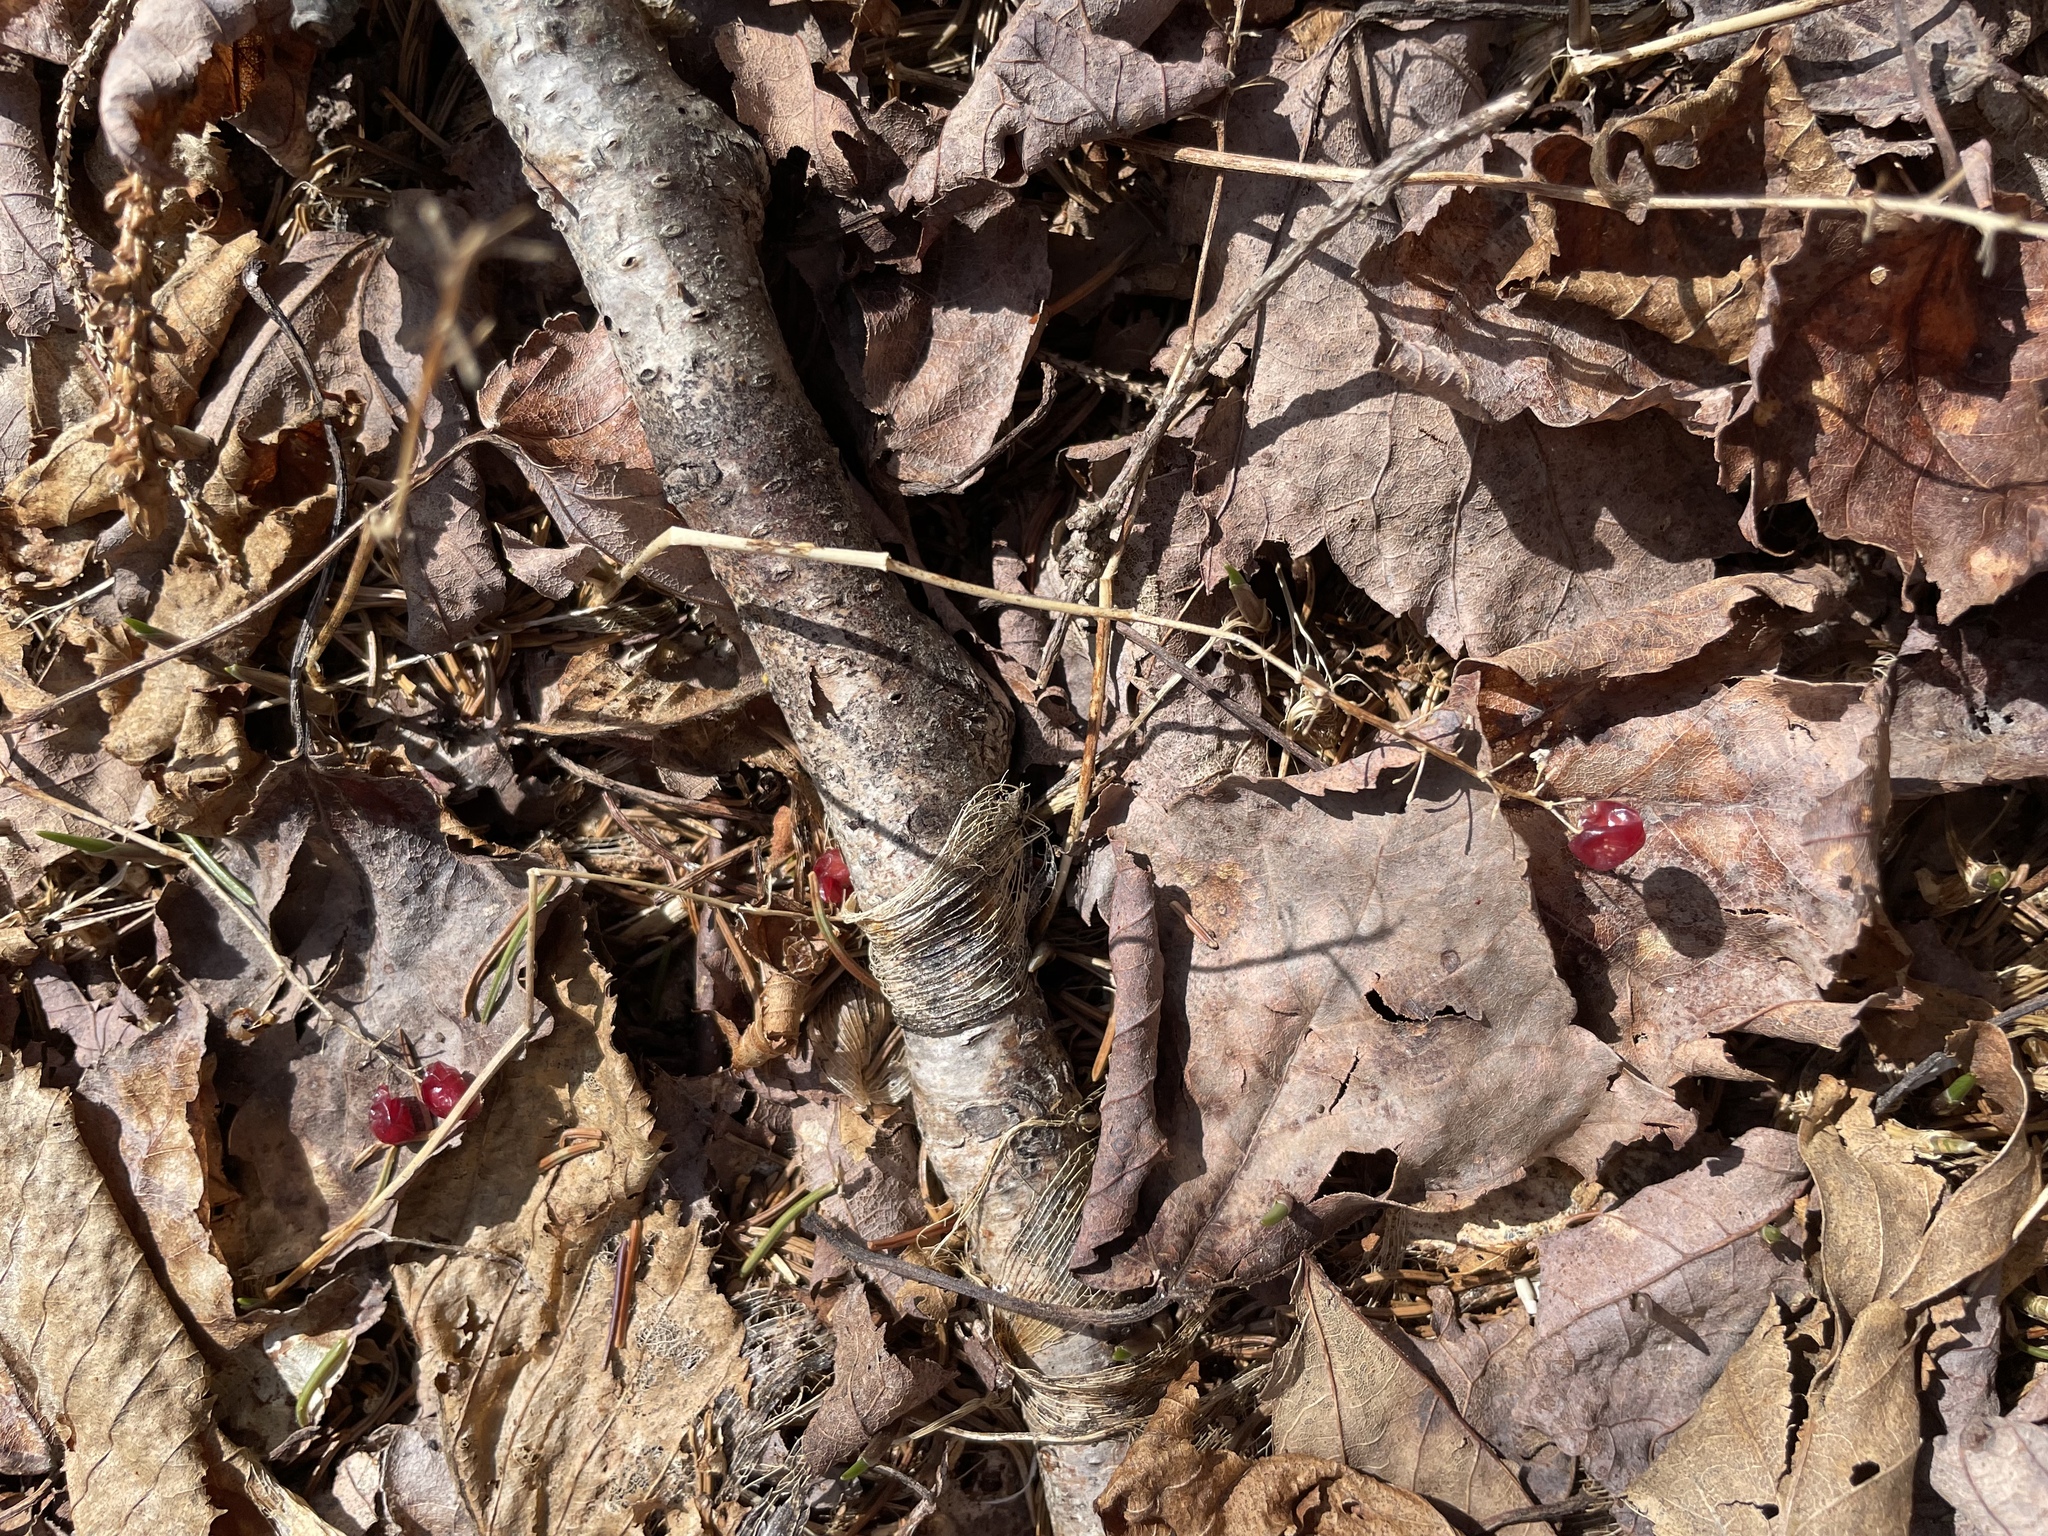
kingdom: Plantae
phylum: Tracheophyta
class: Liliopsida
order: Asparagales
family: Asparagaceae
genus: Maianthemum
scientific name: Maianthemum canadense
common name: False lily-of-the-valley
